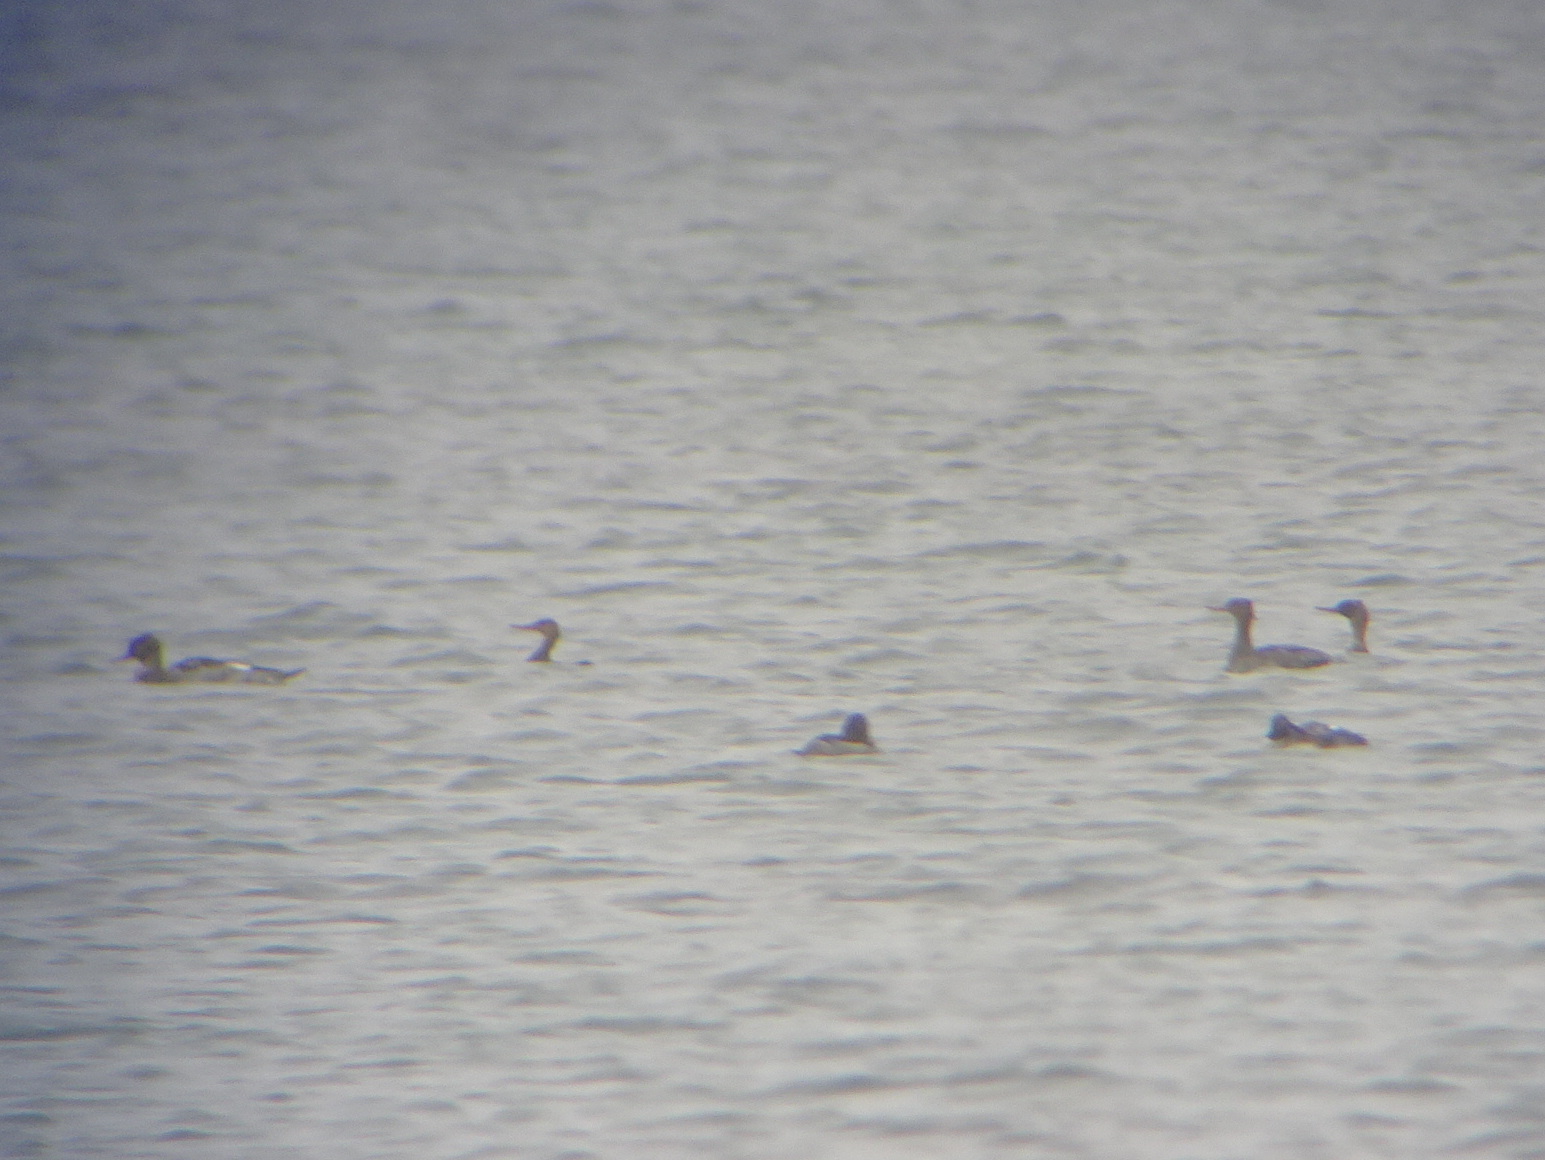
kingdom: Animalia
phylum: Chordata
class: Aves
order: Anseriformes
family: Anatidae
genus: Mergus
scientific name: Mergus serrator
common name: Red-breasted merganser
